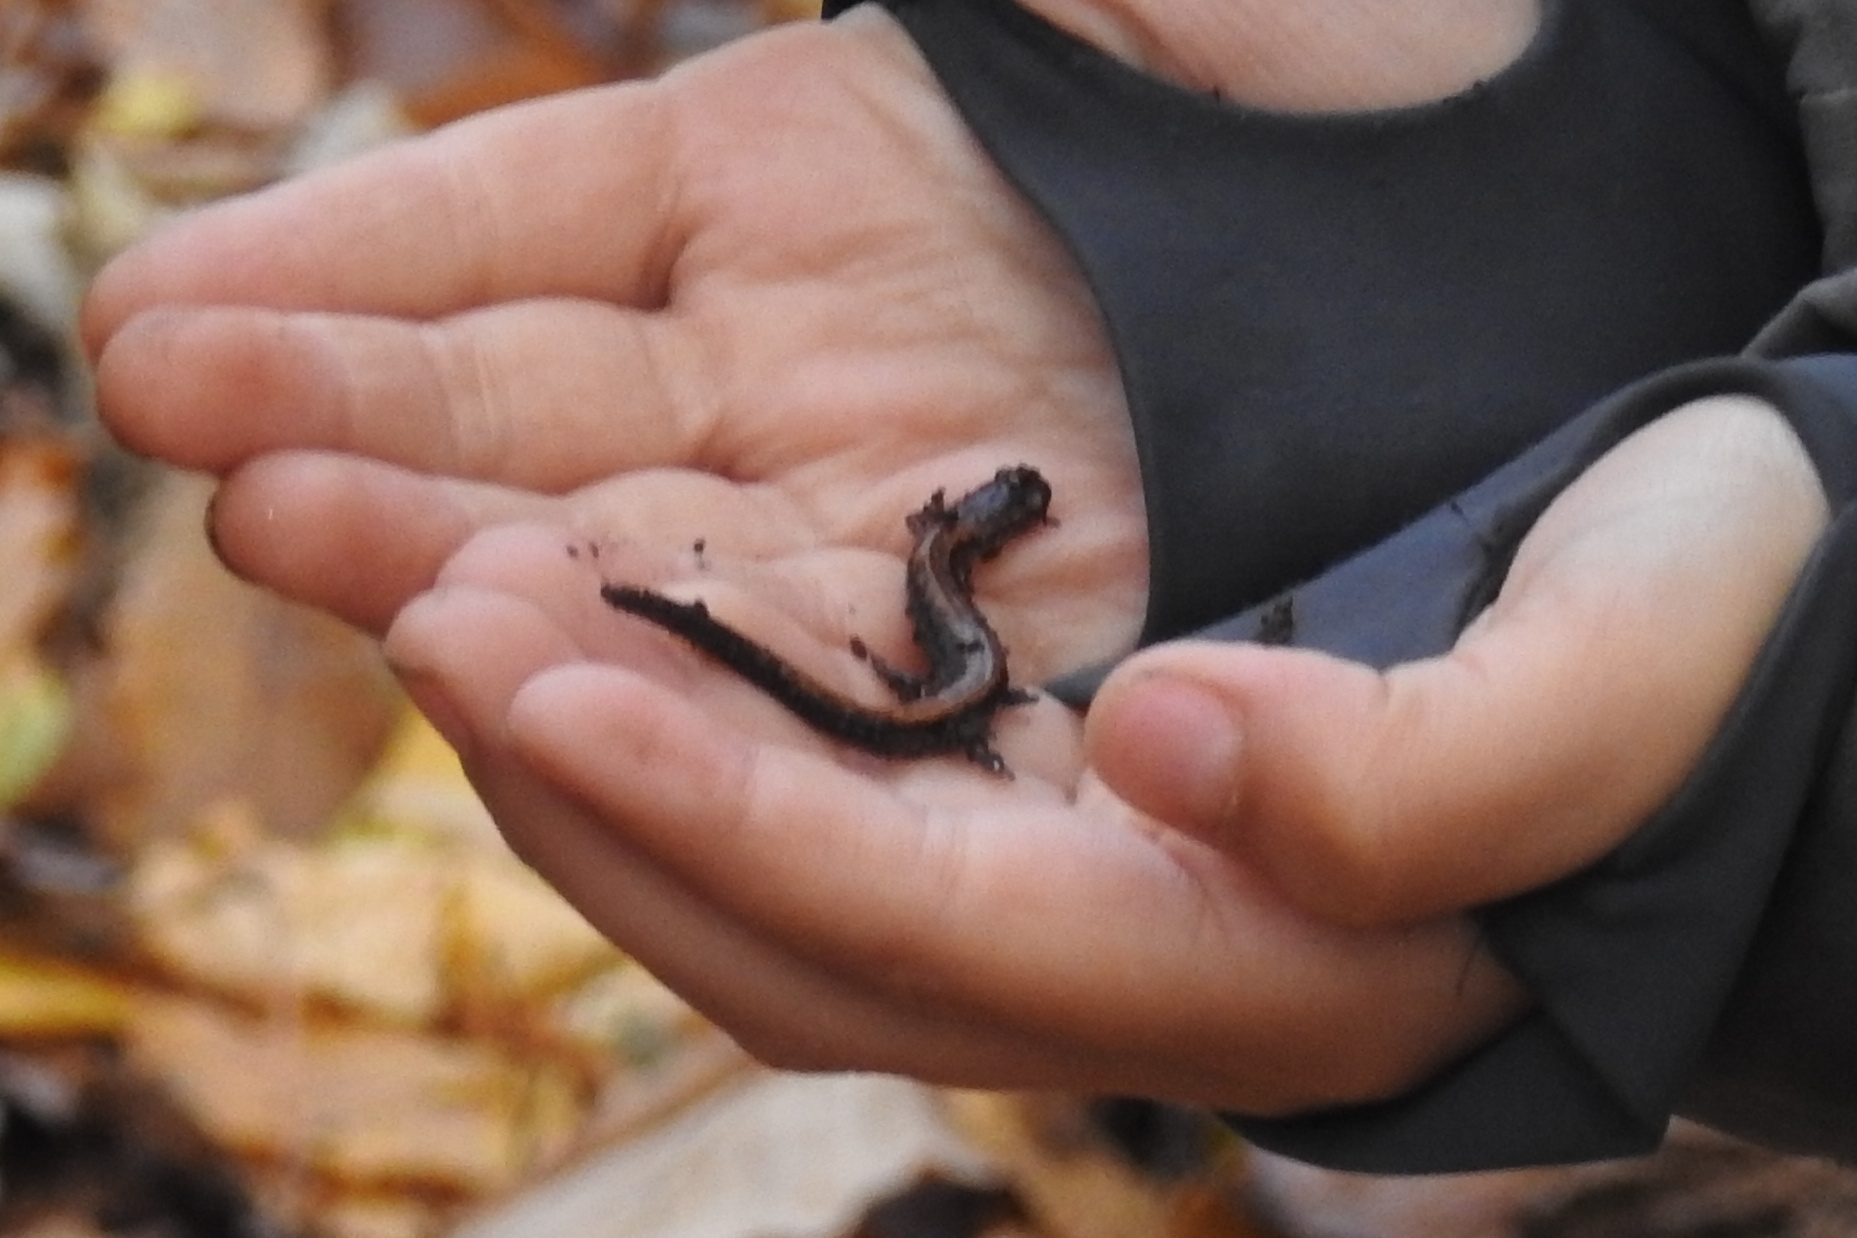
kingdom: Animalia
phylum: Chordata
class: Amphibia
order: Caudata
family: Plethodontidae
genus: Plethodon
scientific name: Plethodon cinereus
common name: Redback salamander
